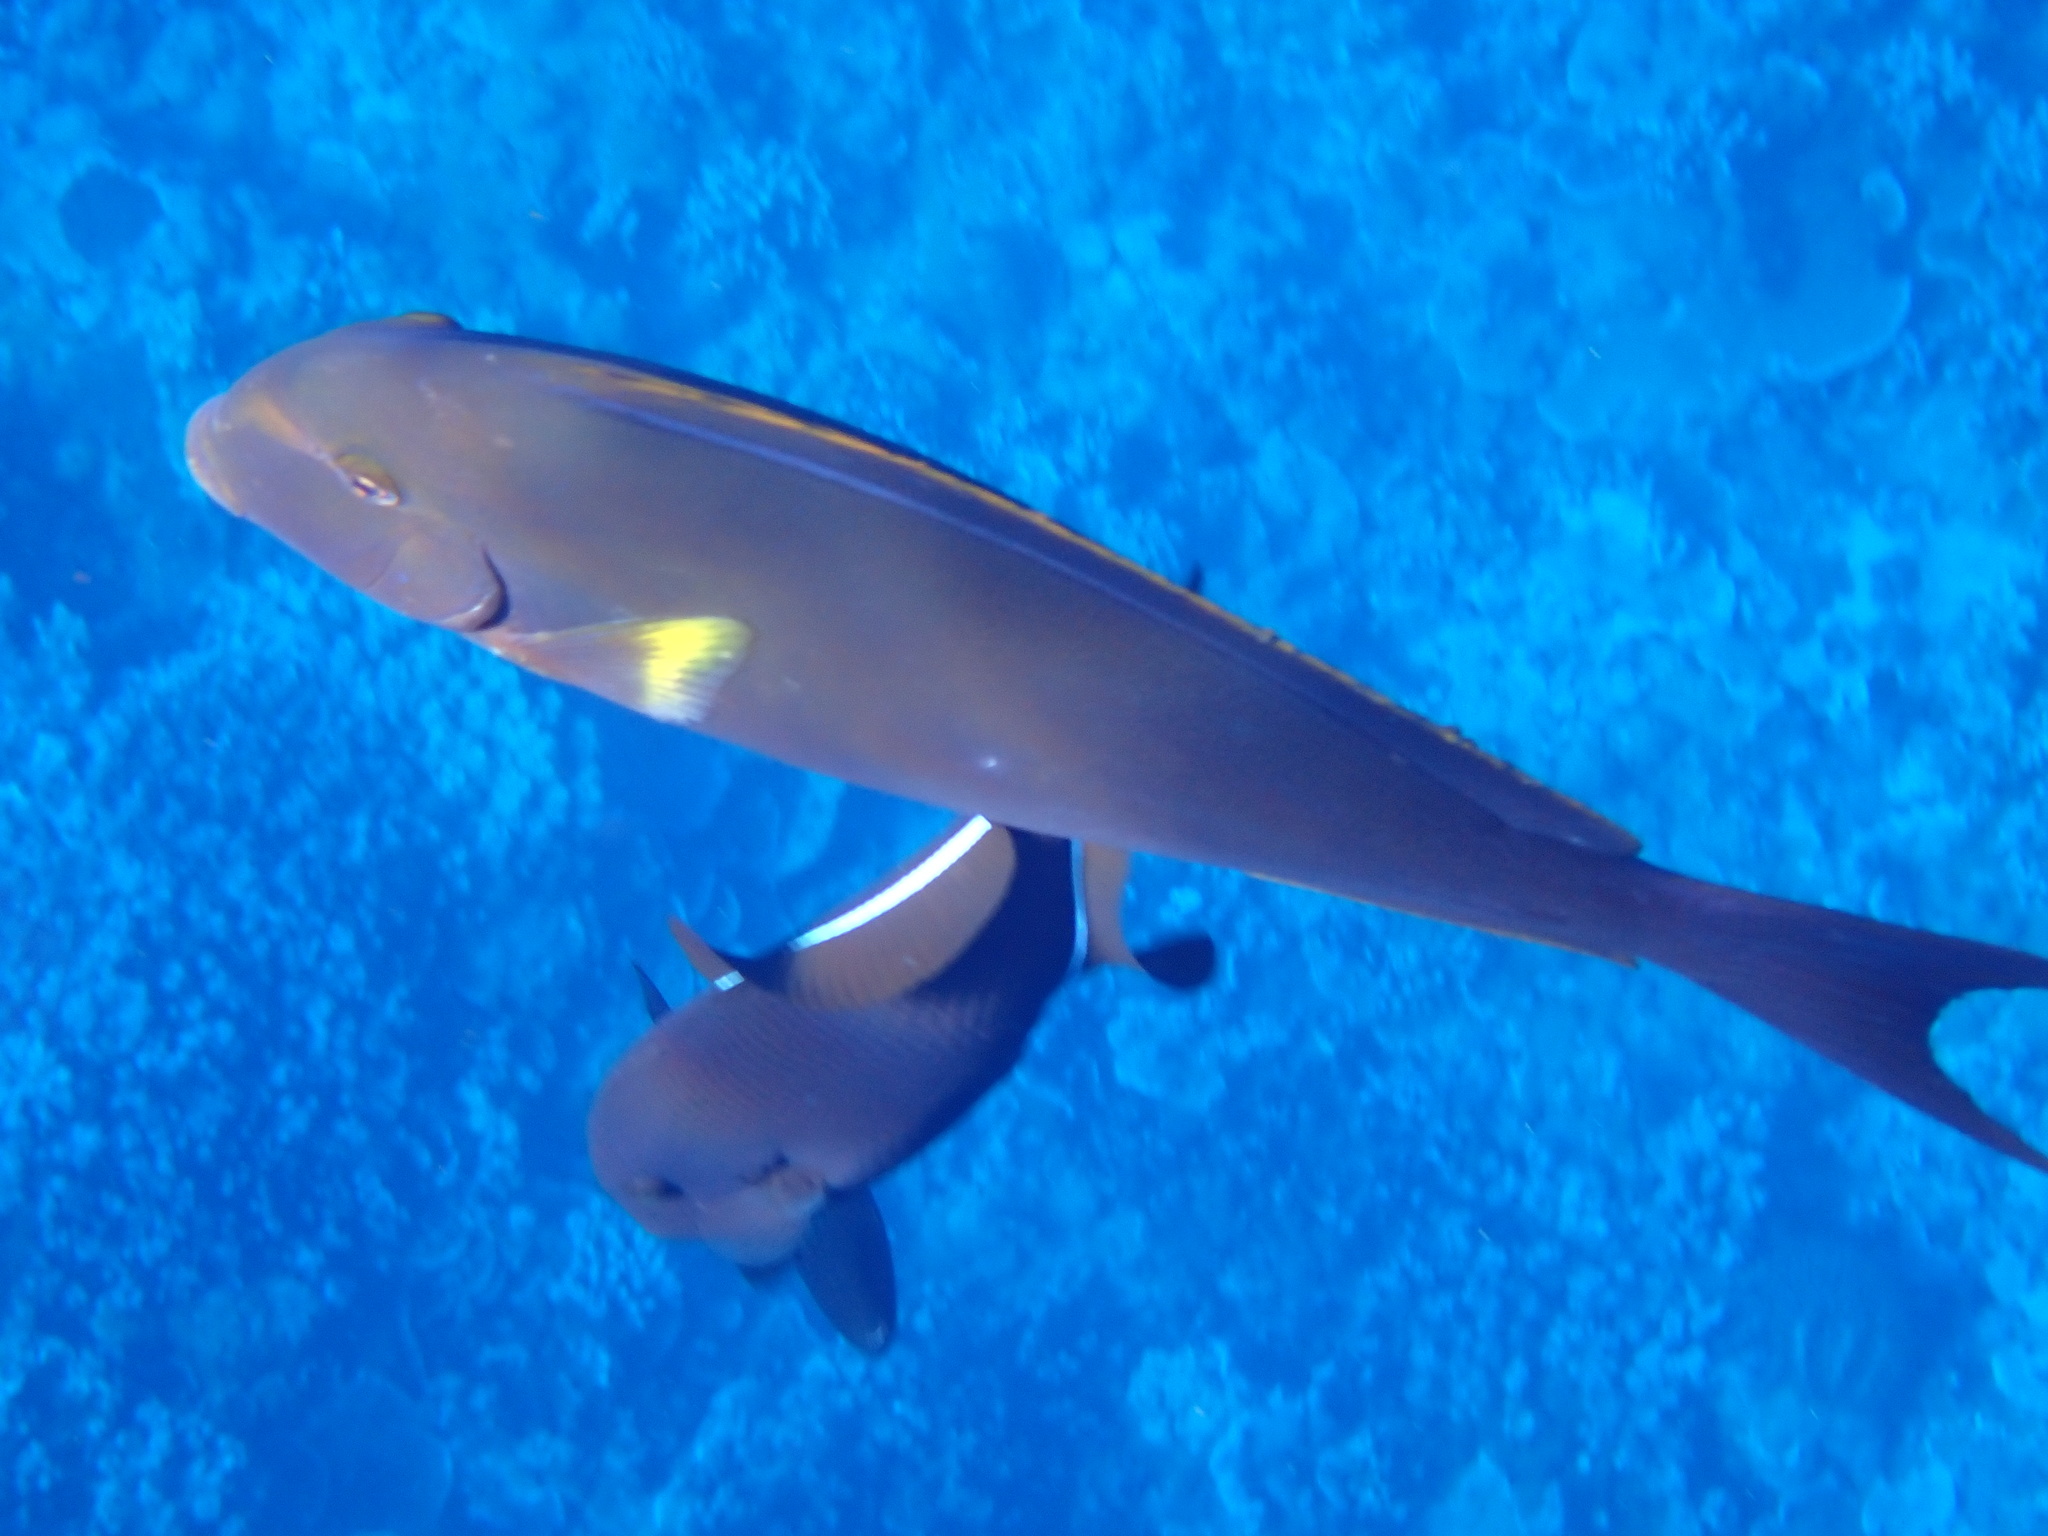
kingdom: Animalia
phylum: Chordata
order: Perciformes
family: Acanthuridae
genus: Acanthurus
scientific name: Acanthurus xanthopterus
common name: Cuvier's surgeonfish
